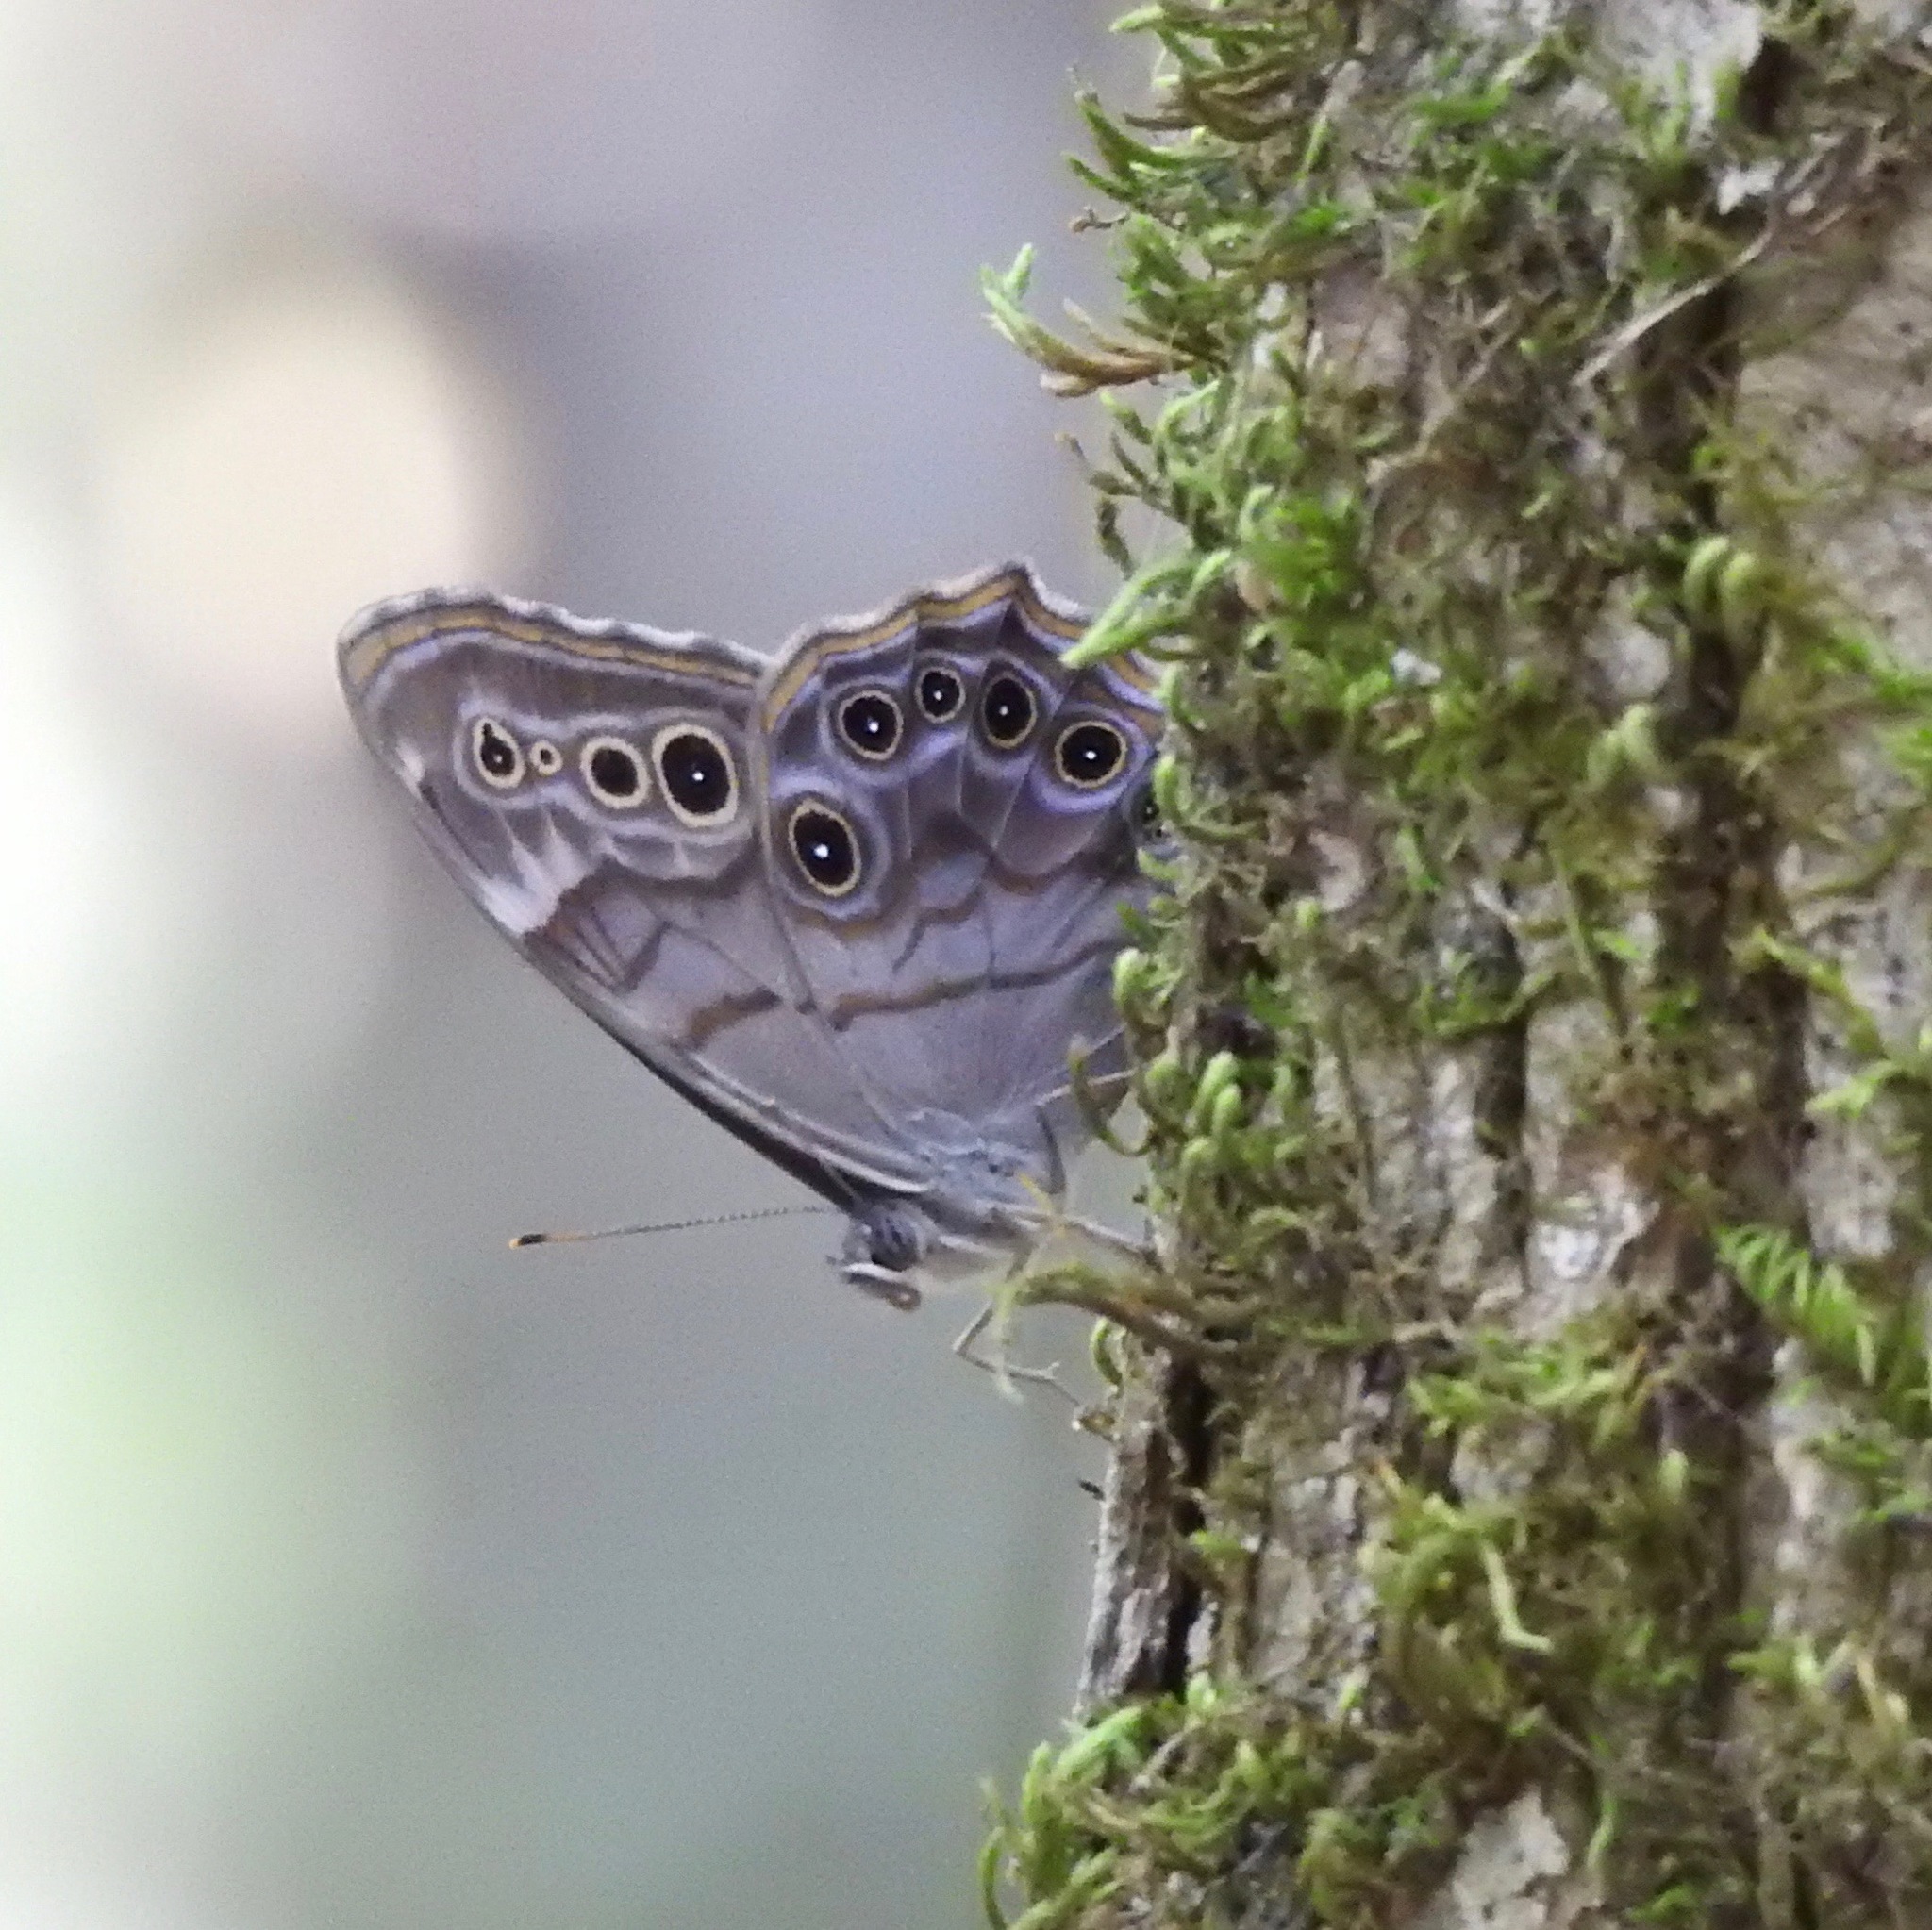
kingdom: Animalia
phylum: Arthropoda
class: Insecta
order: Lepidoptera
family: Nymphalidae
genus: Lethe
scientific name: Lethe anthedon
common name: Northern pearly-eye
